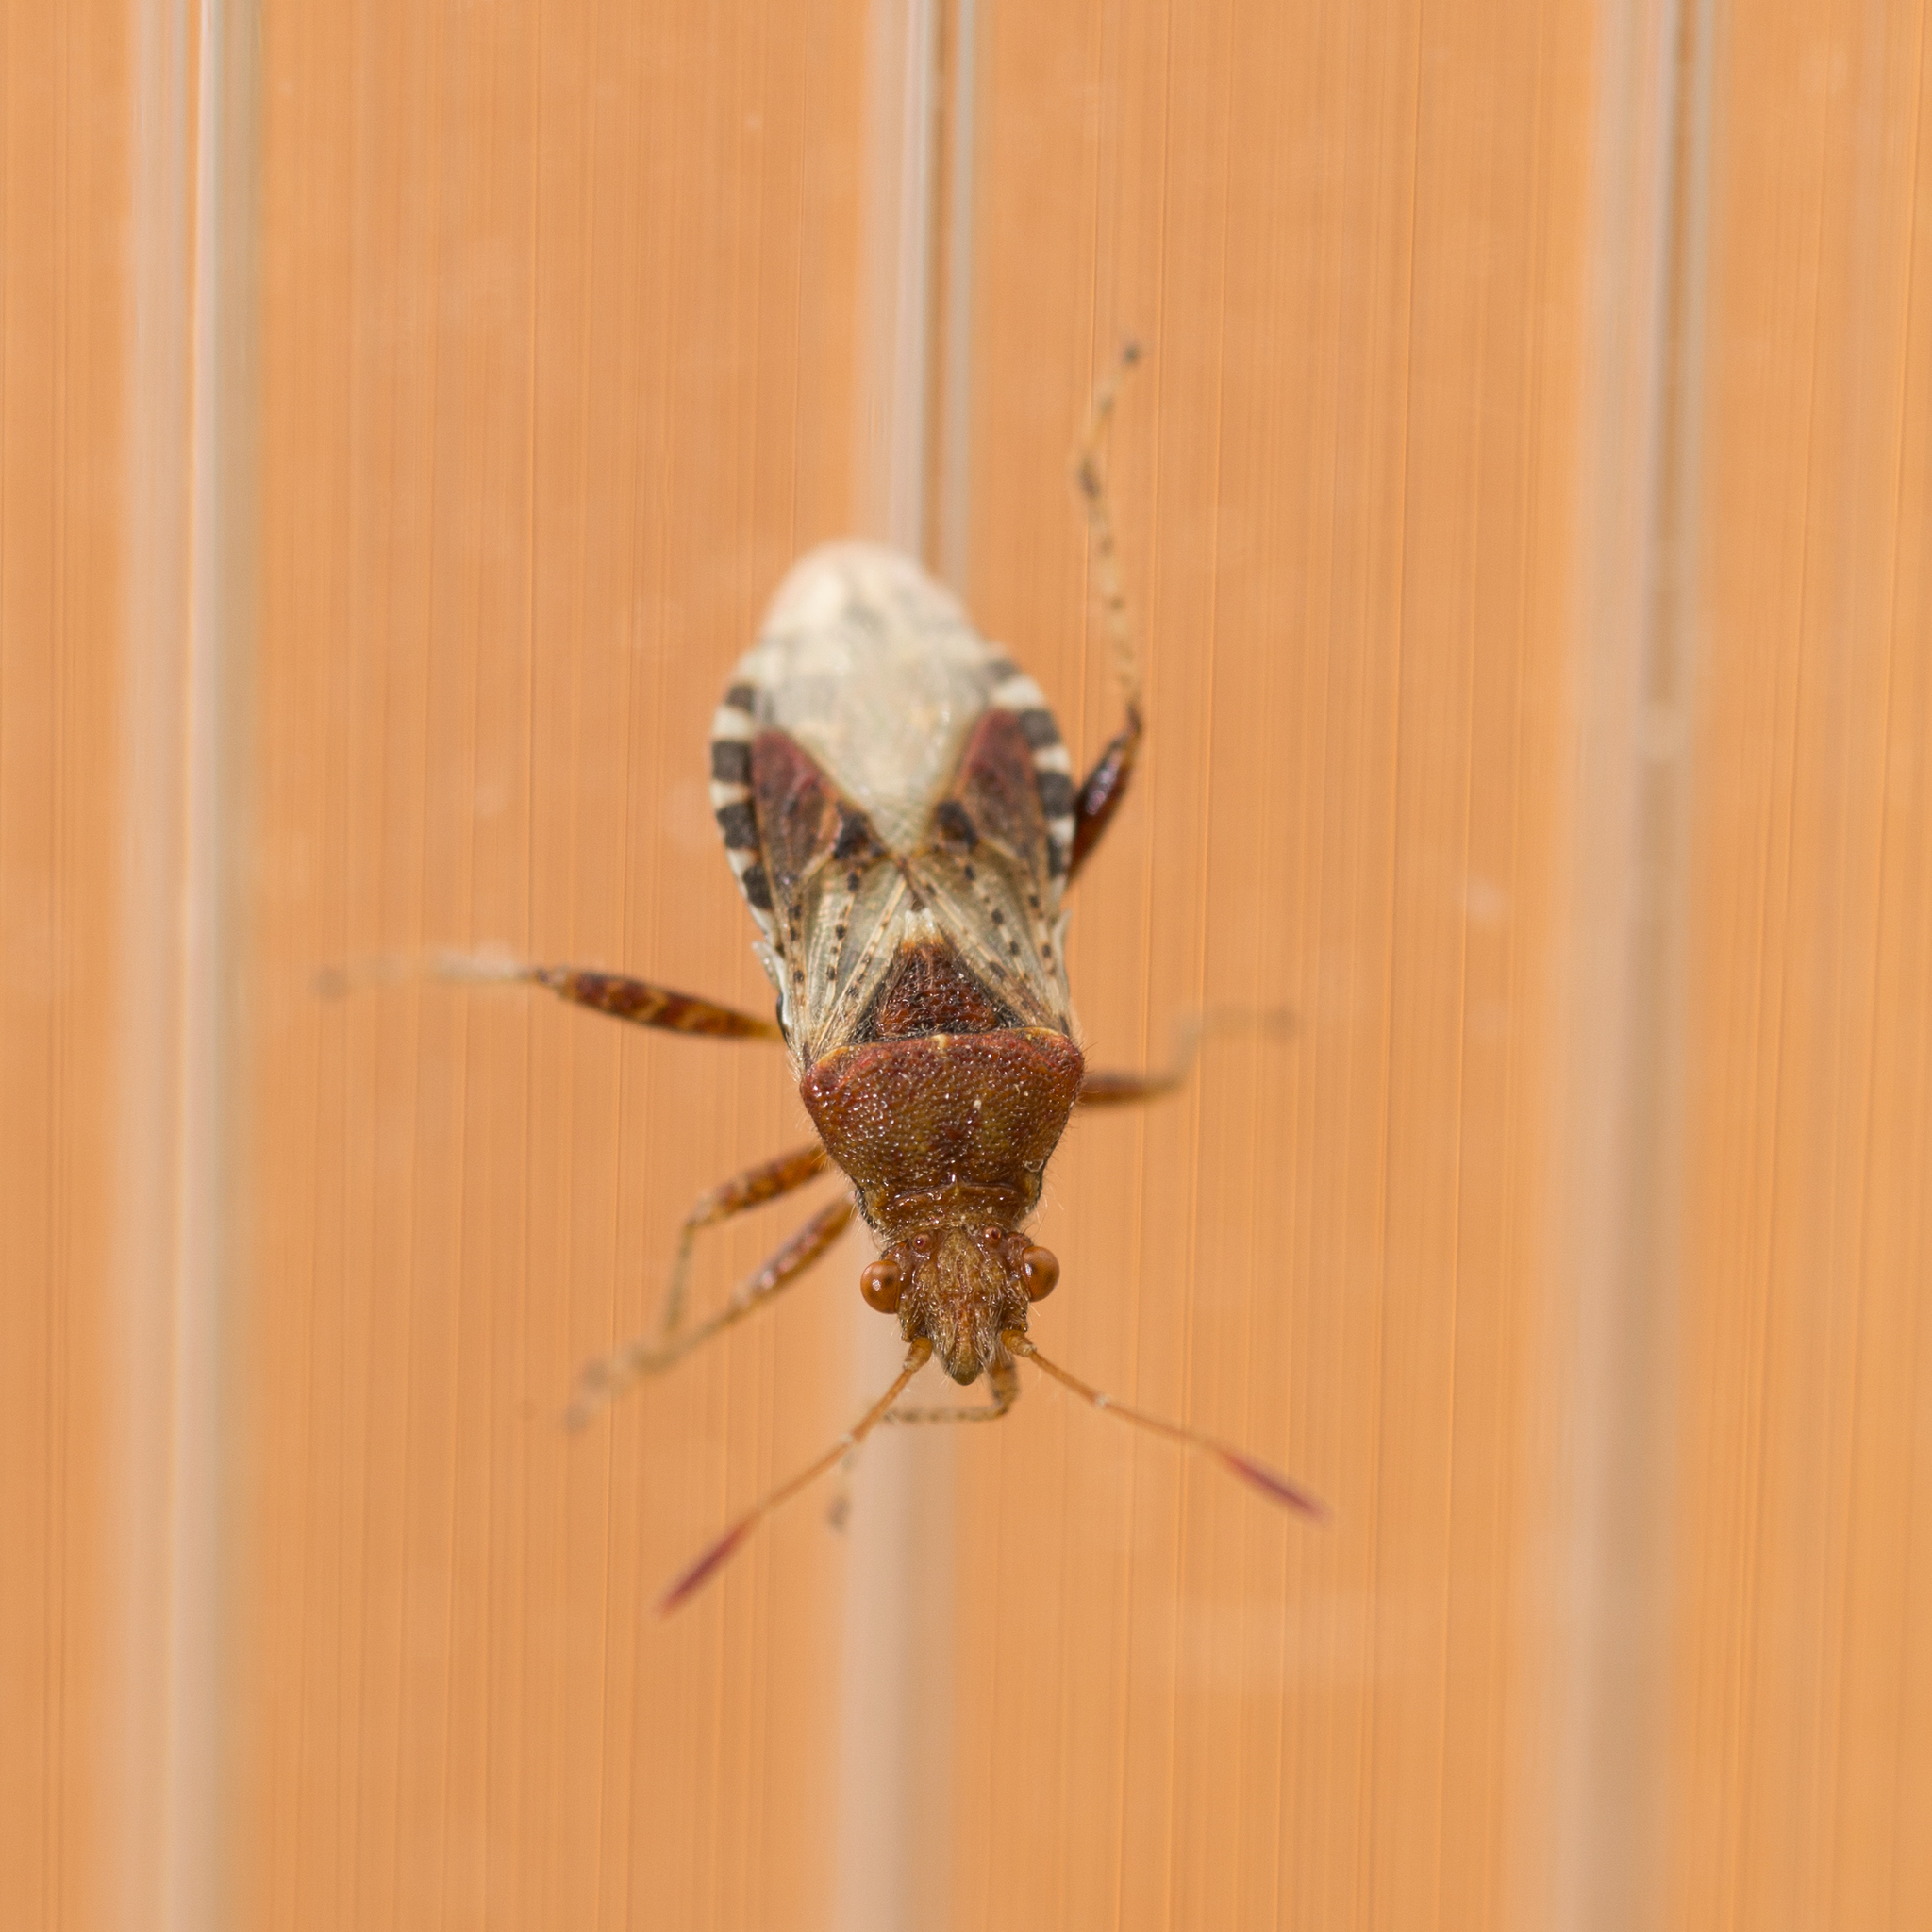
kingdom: Animalia
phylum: Arthropoda
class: Insecta
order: Hemiptera
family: Rhopalidae
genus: Rhopalus
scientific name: Rhopalus subrufus
